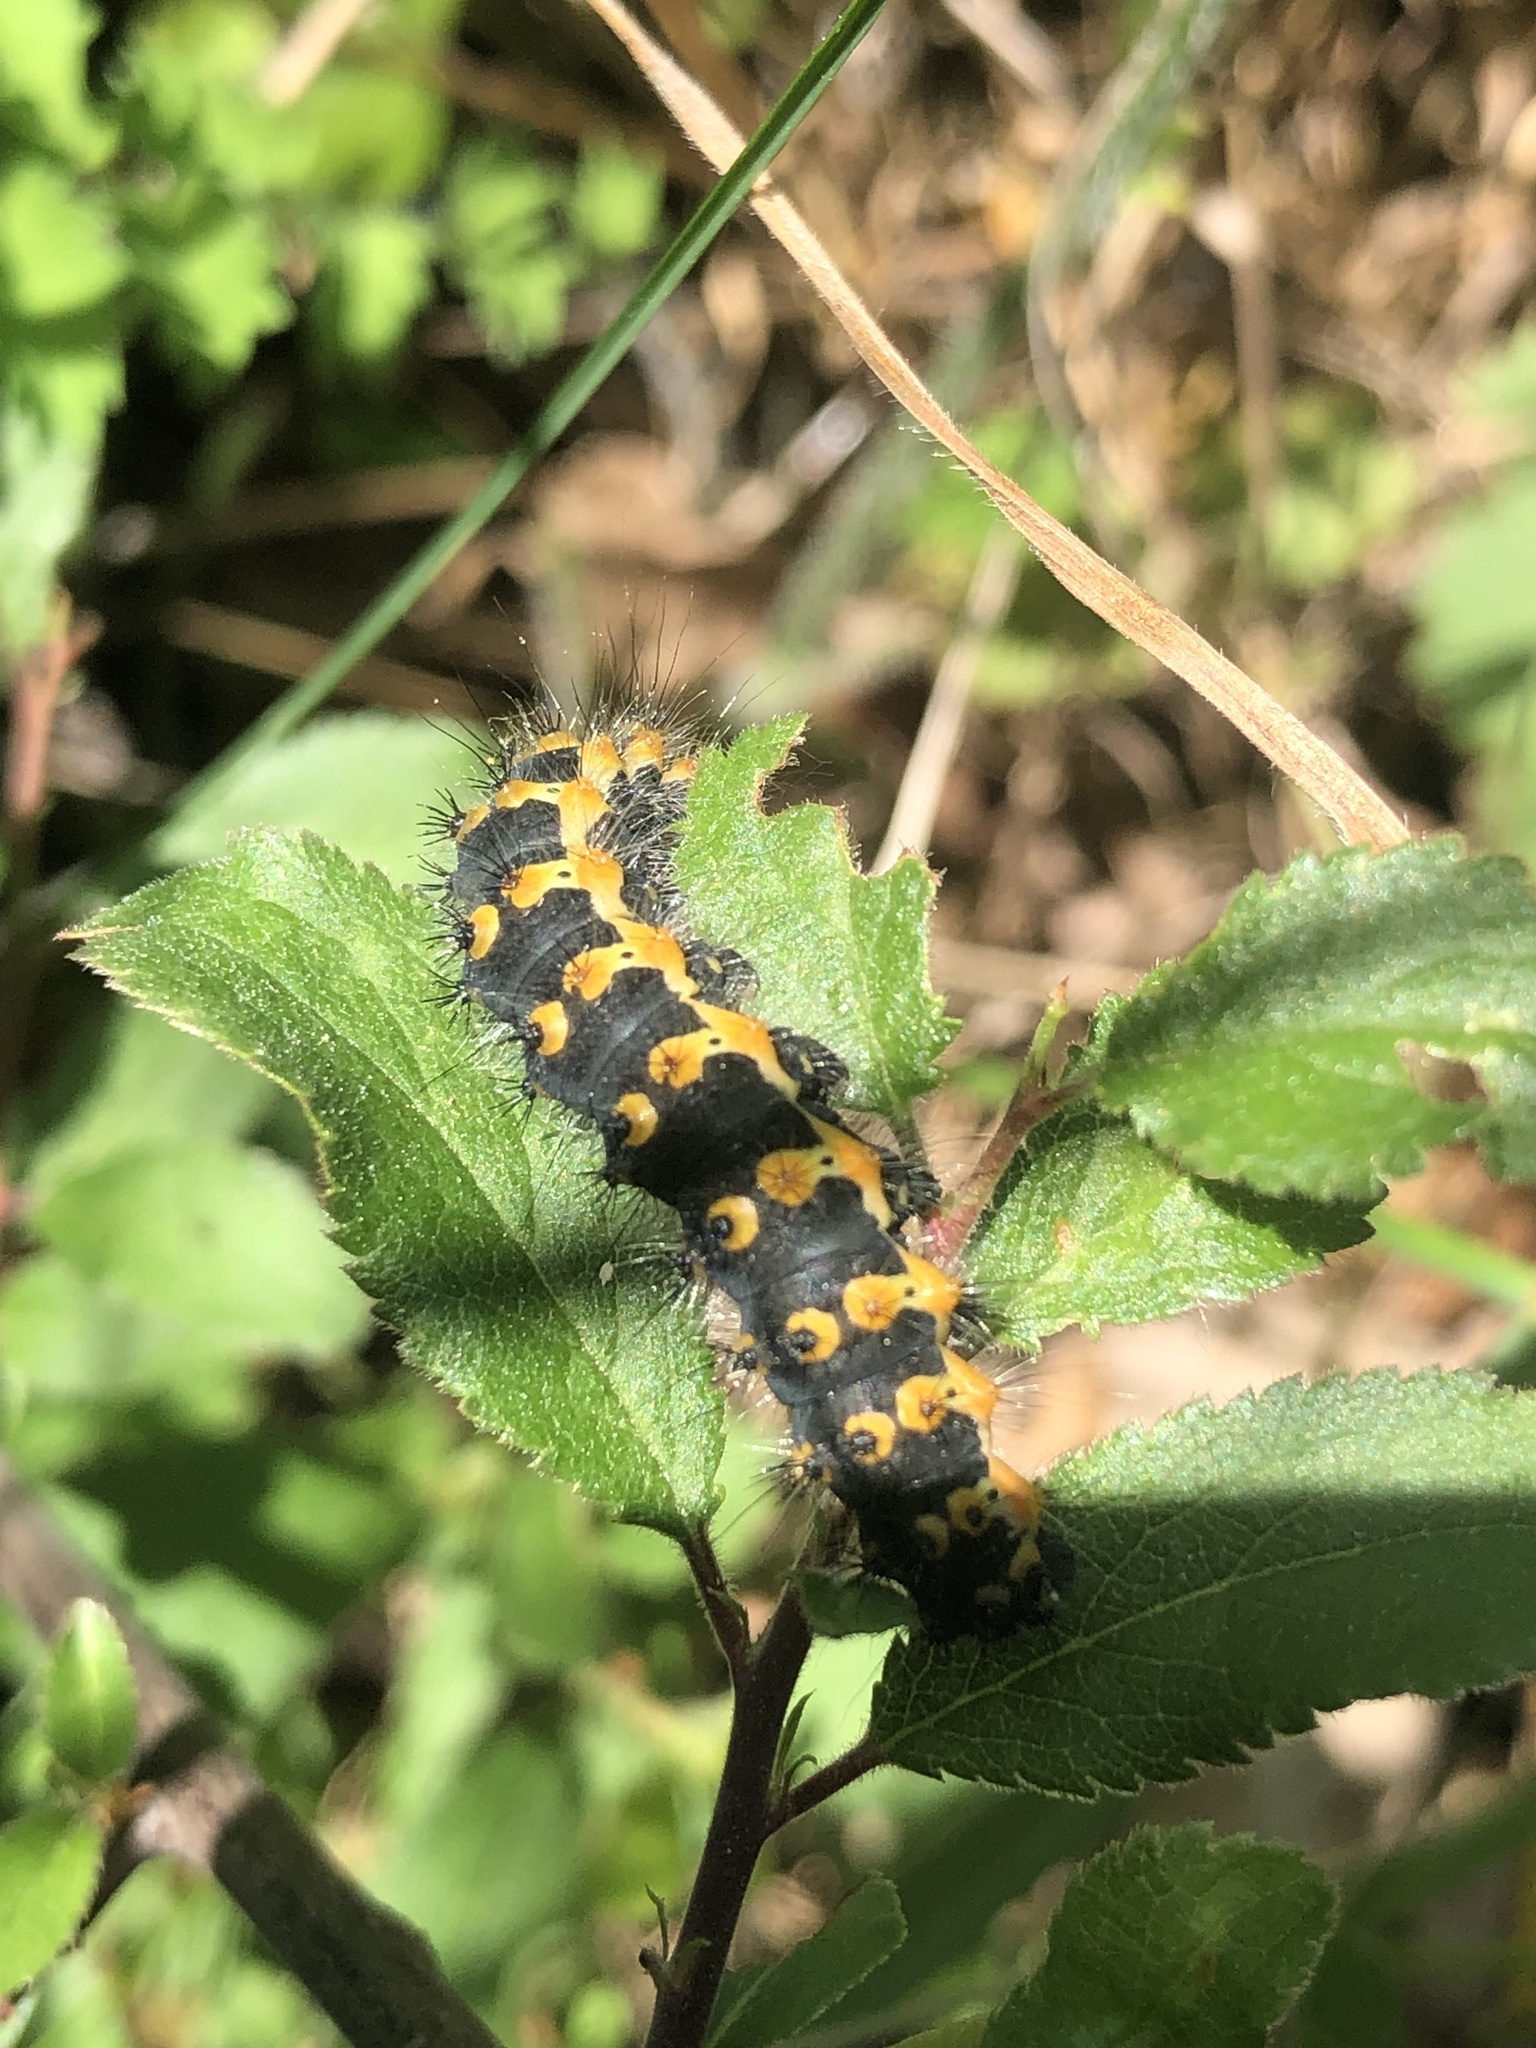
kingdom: Animalia
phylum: Arthropoda
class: Insecta
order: Lepidoptera
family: Saturniidae
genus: Saturnia
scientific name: Saturnia pavonia
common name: Emperor moth
